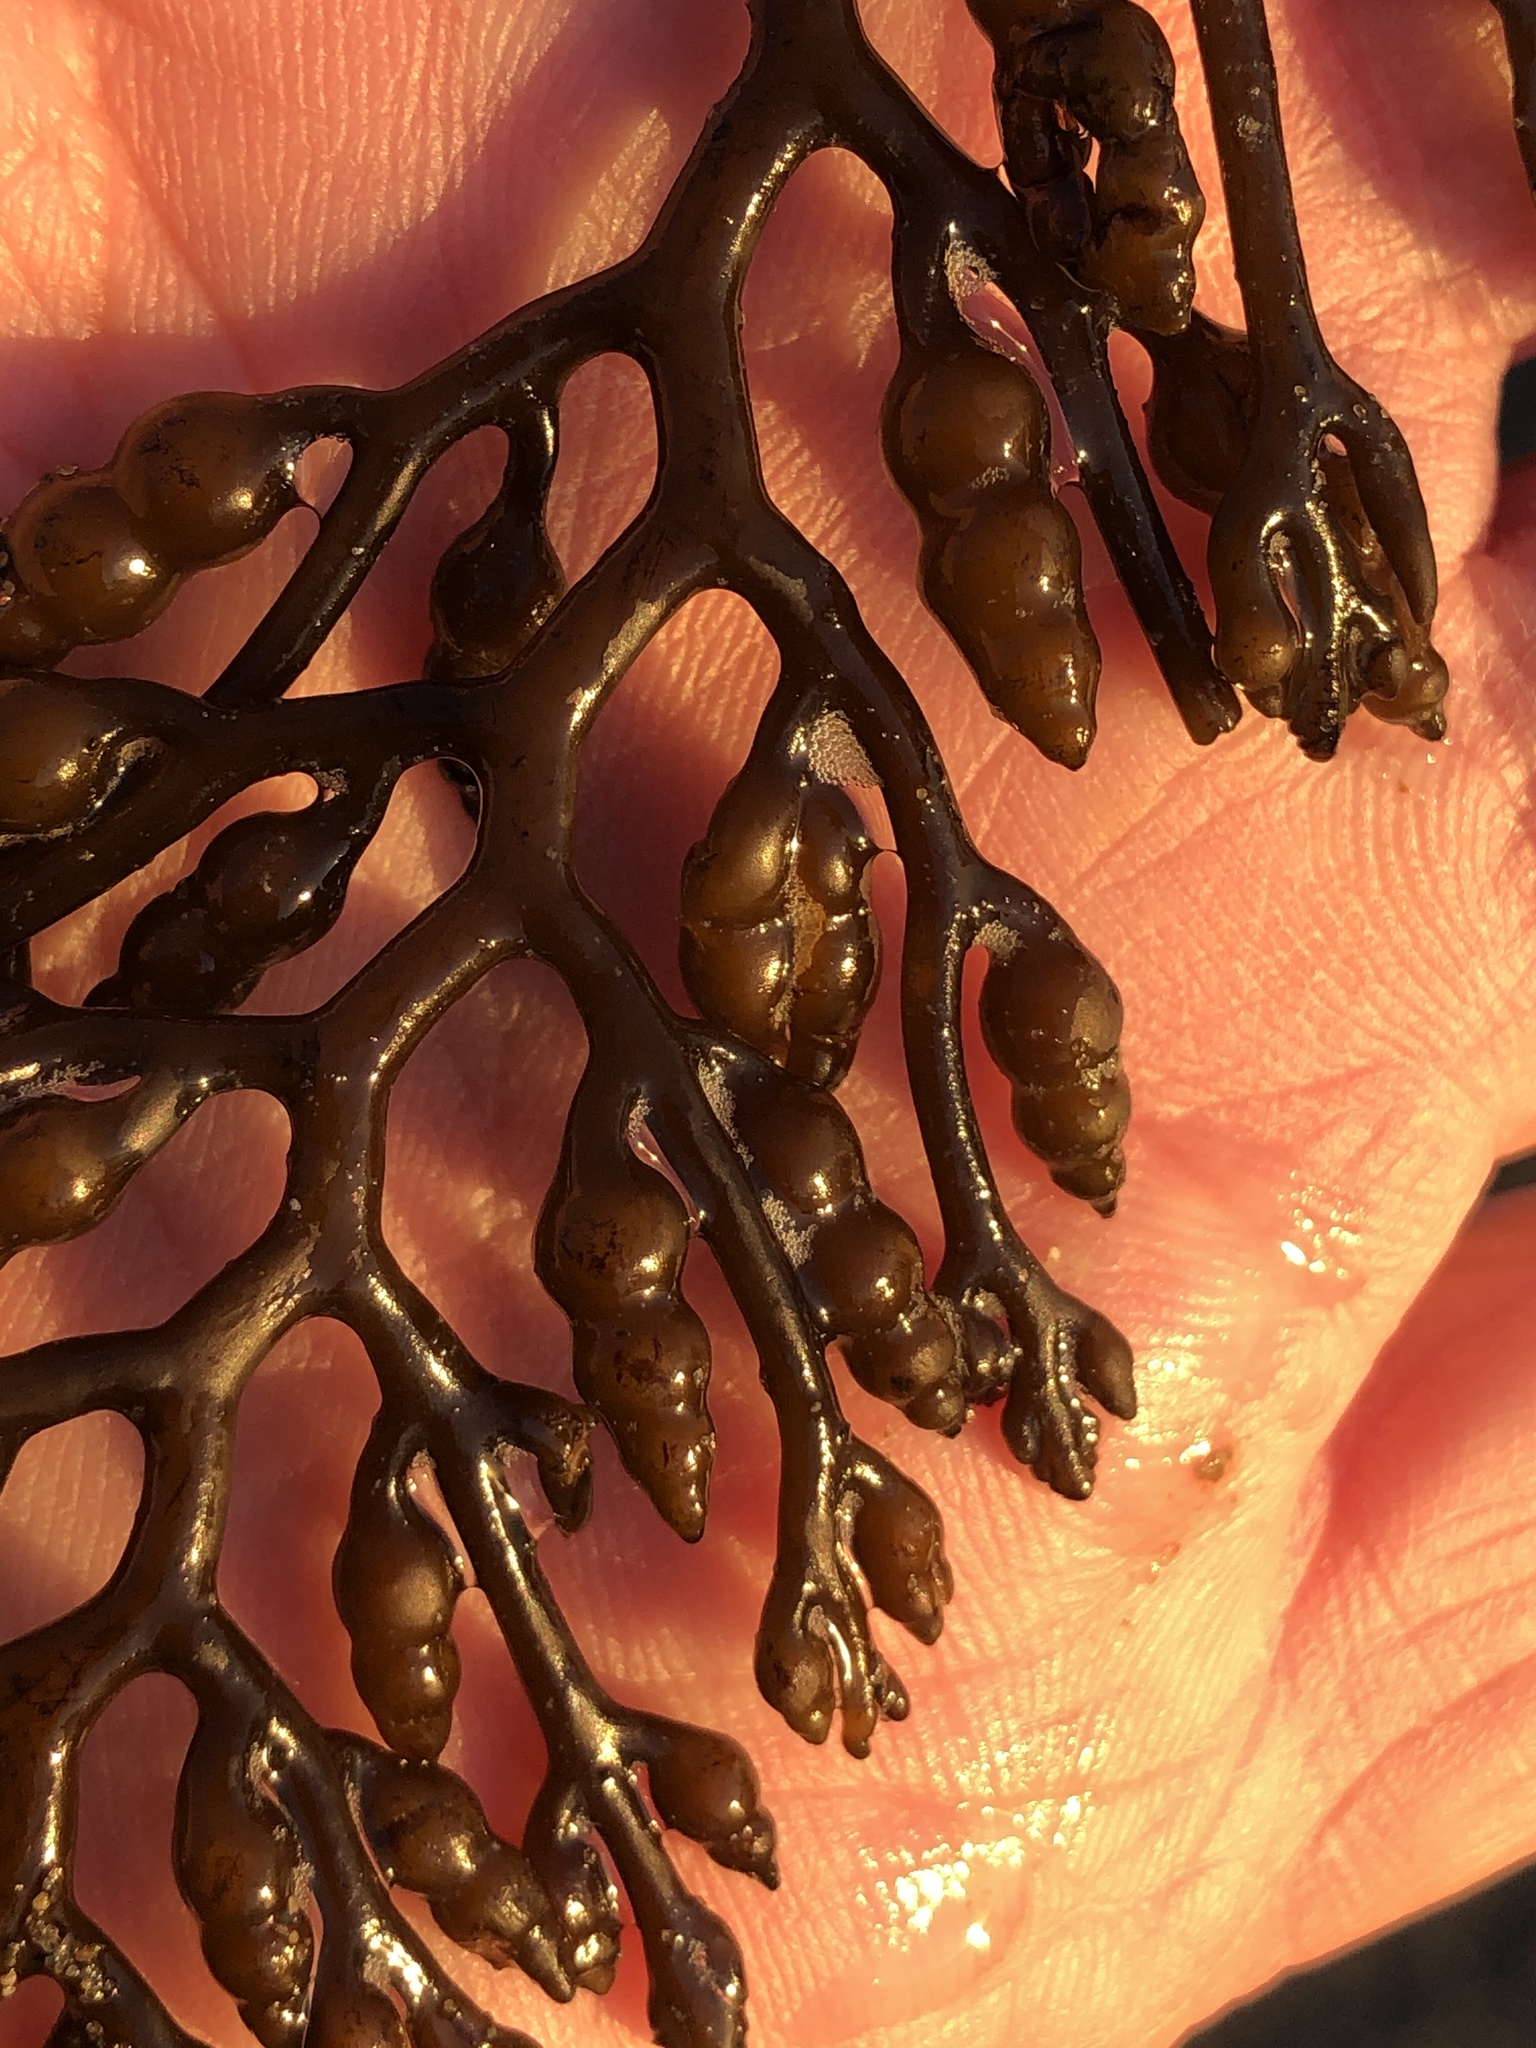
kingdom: Chromista
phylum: Ochrophyta
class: Phaeophyceae
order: Fucales
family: Sargassaceae
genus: Stephanocystis
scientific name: Stephanocystis
